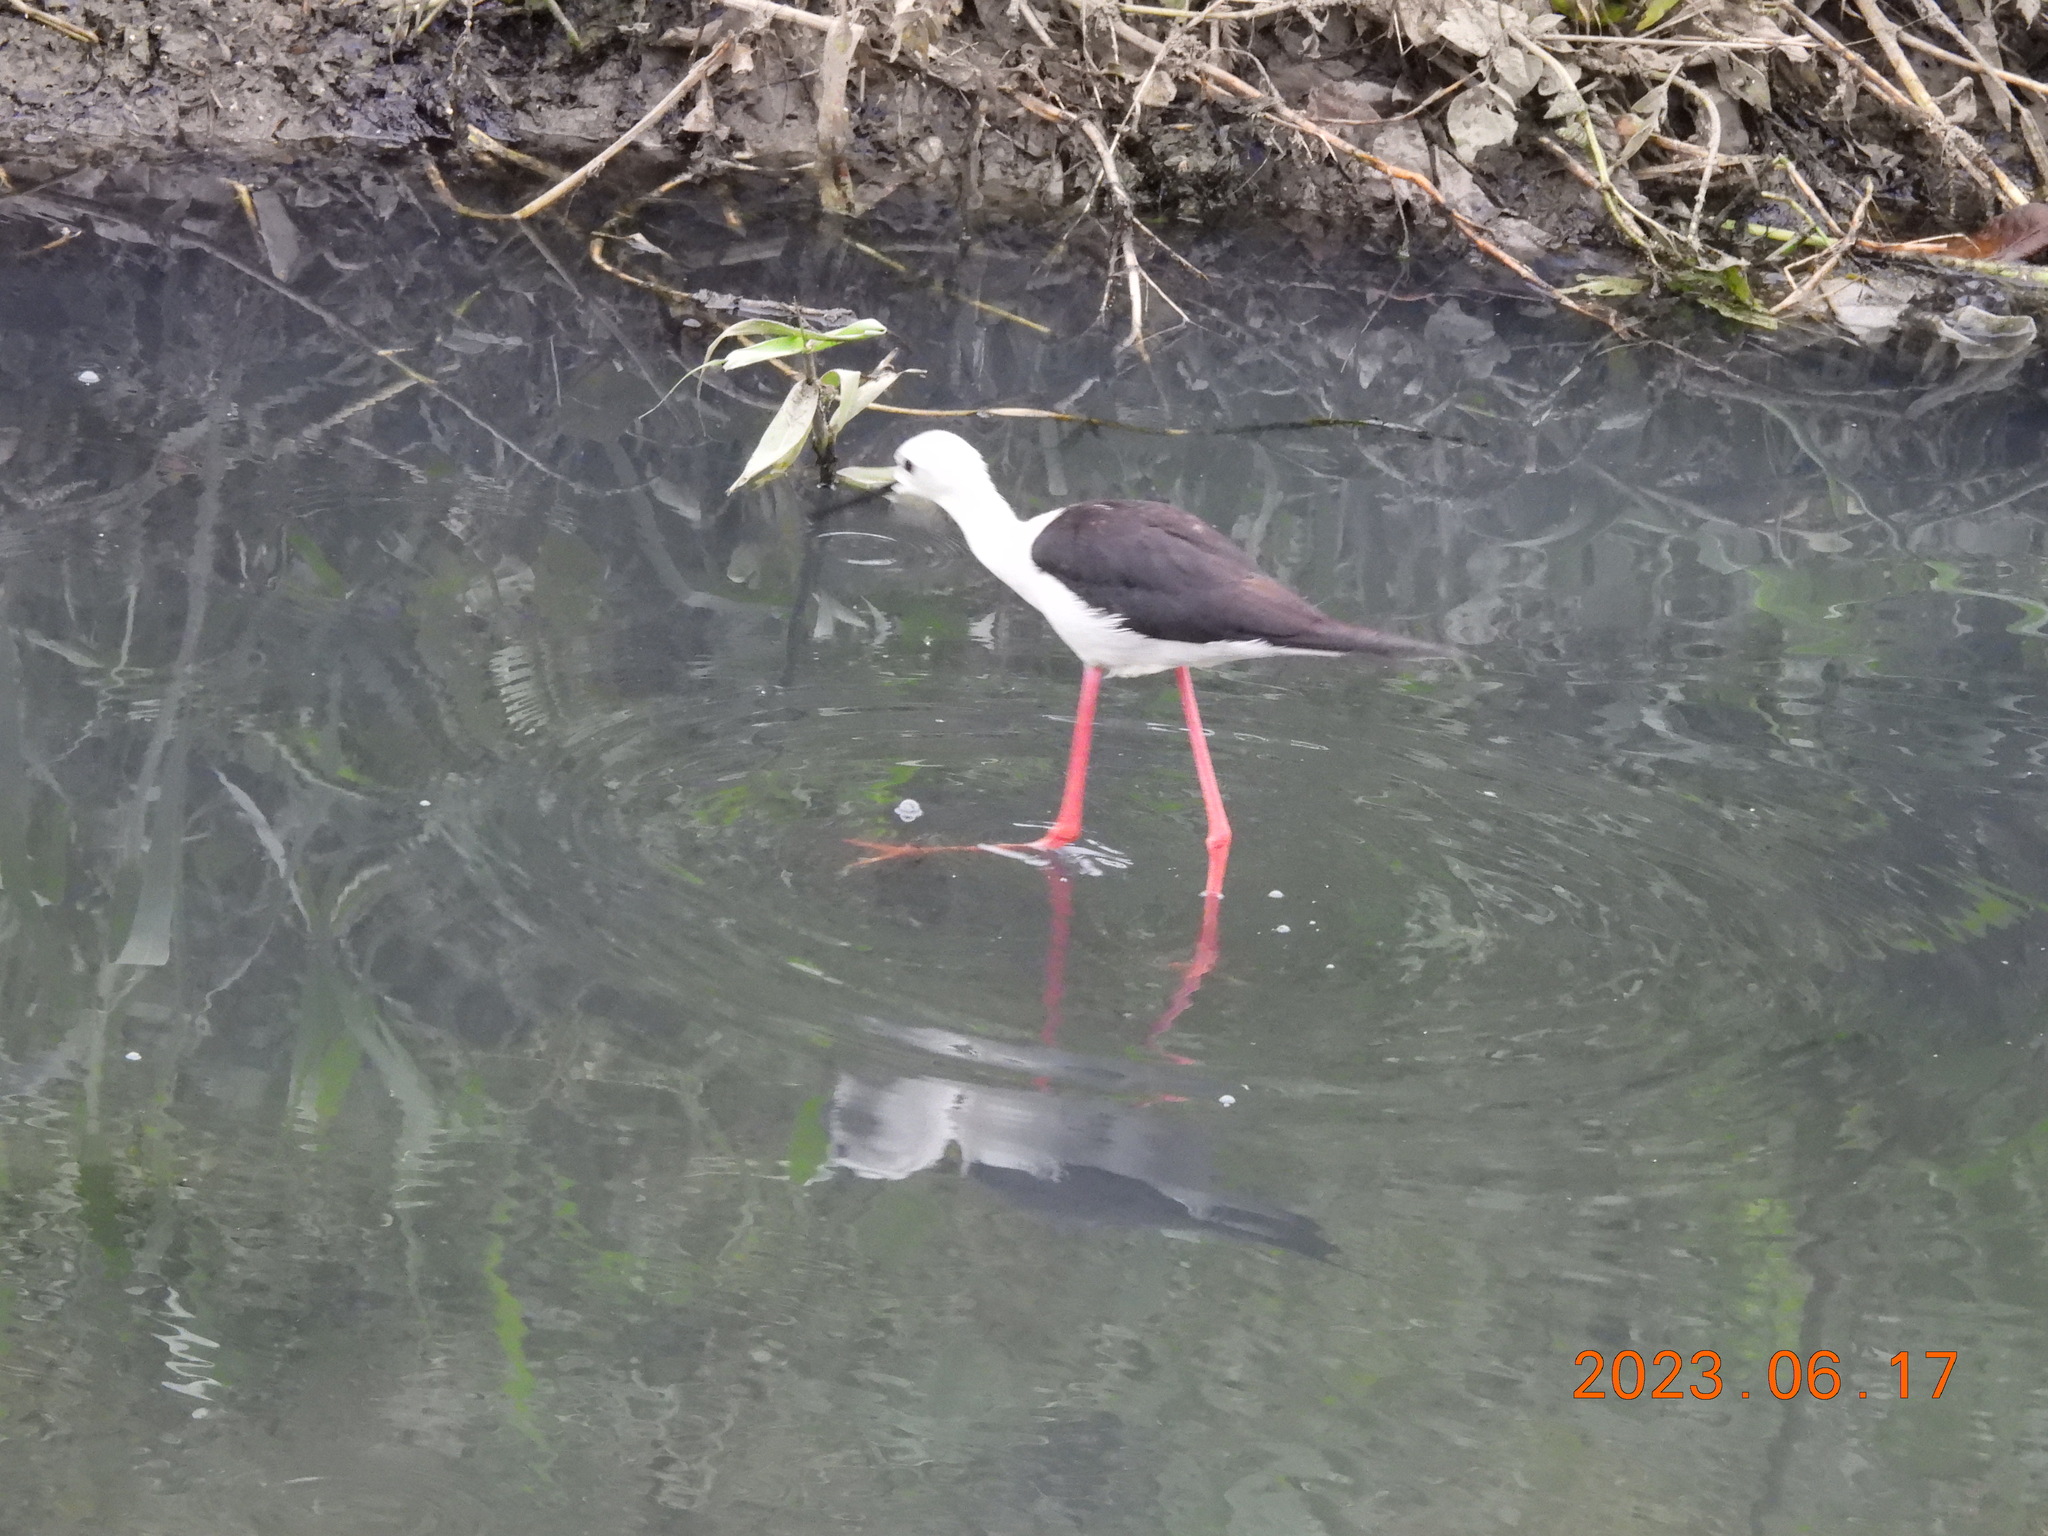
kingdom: Animalia
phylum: Chordata
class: Aves
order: Charadriiformes
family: Recurvirostridae
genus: Himantopus
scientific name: Himantopus himantopus
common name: Black-winged stilt
